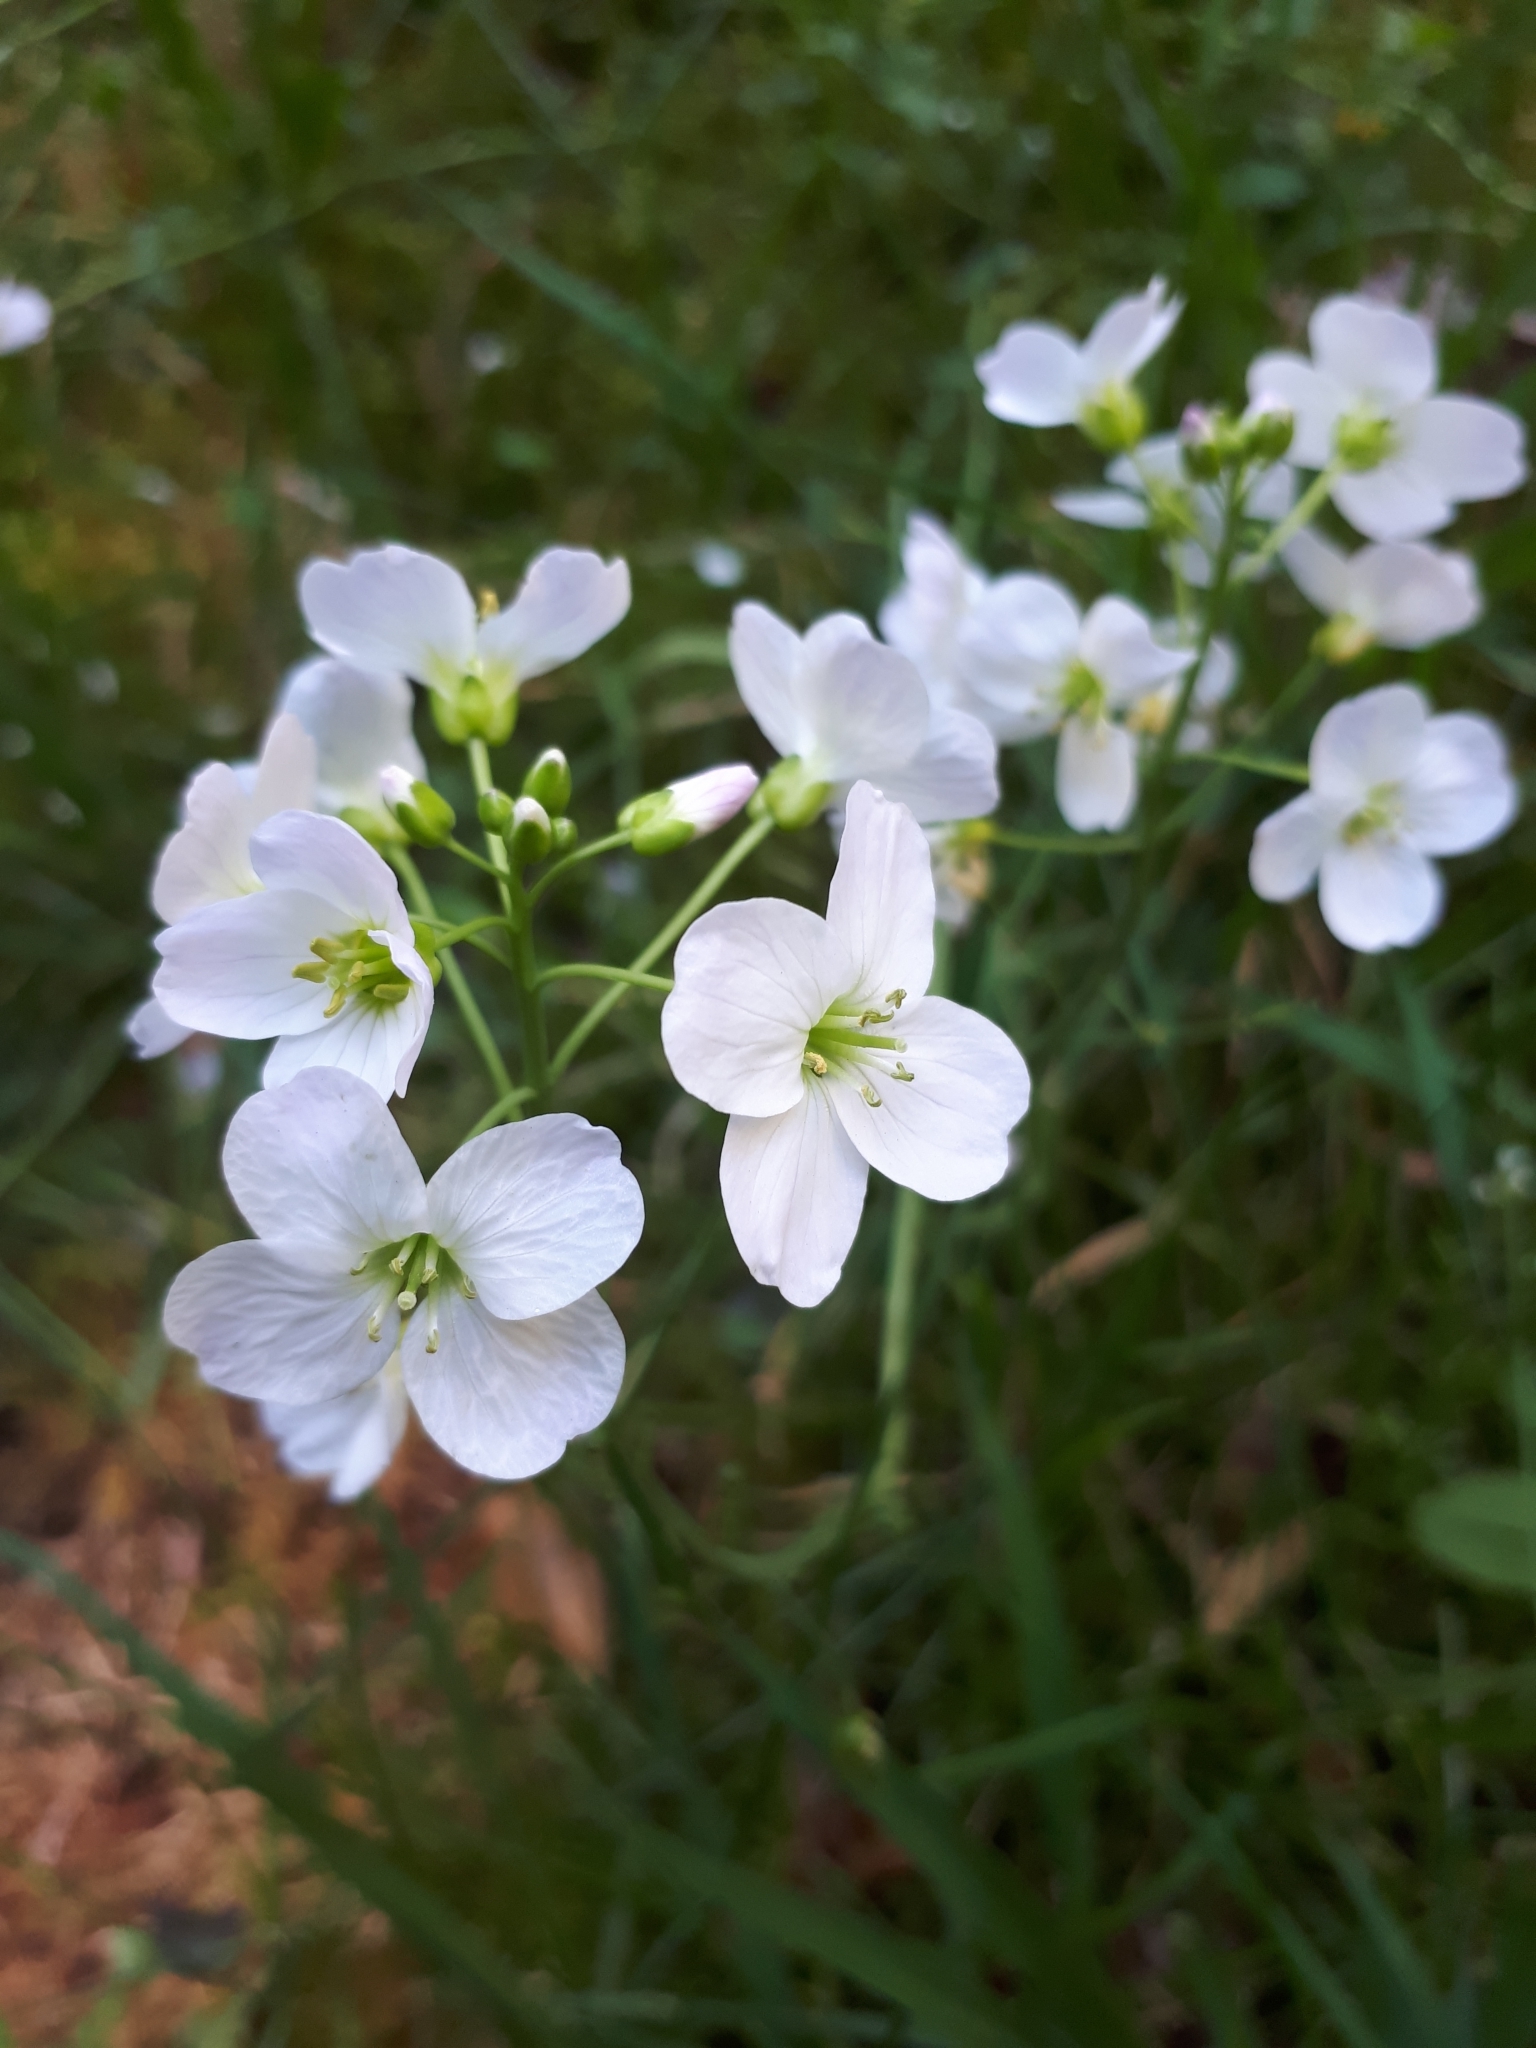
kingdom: Plantae
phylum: Tracheophyta
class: Magnoliopsida
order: Brassicales
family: Brassicaceae
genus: Cardamine
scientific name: Cardamine pratensis
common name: Cuckoo flower
